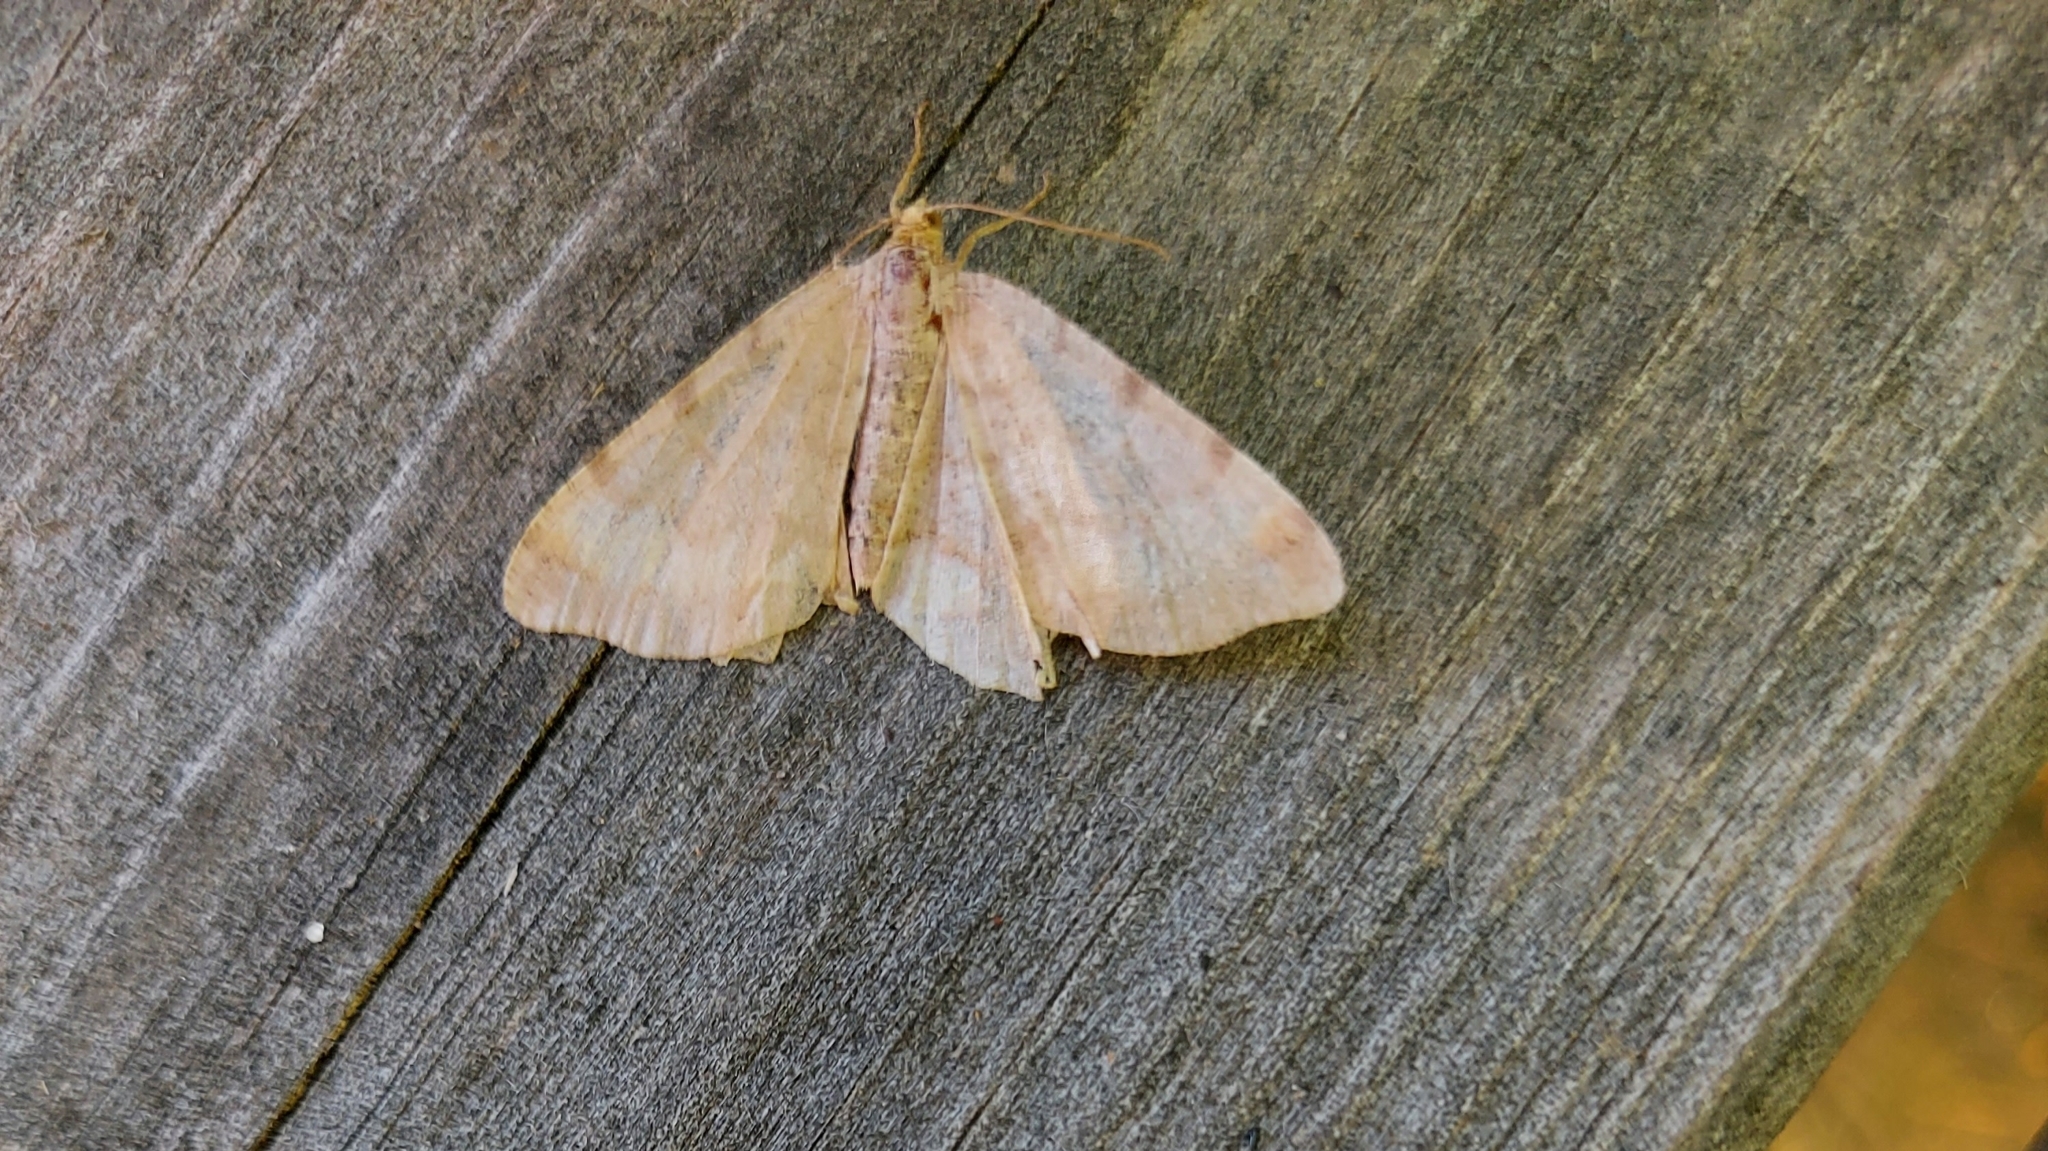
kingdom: Animalia
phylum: Arthropoda
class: Insecta
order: Lepidoptera
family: Geometridae
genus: Macaria
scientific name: Macaria liturata
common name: Tawny-barred angle
